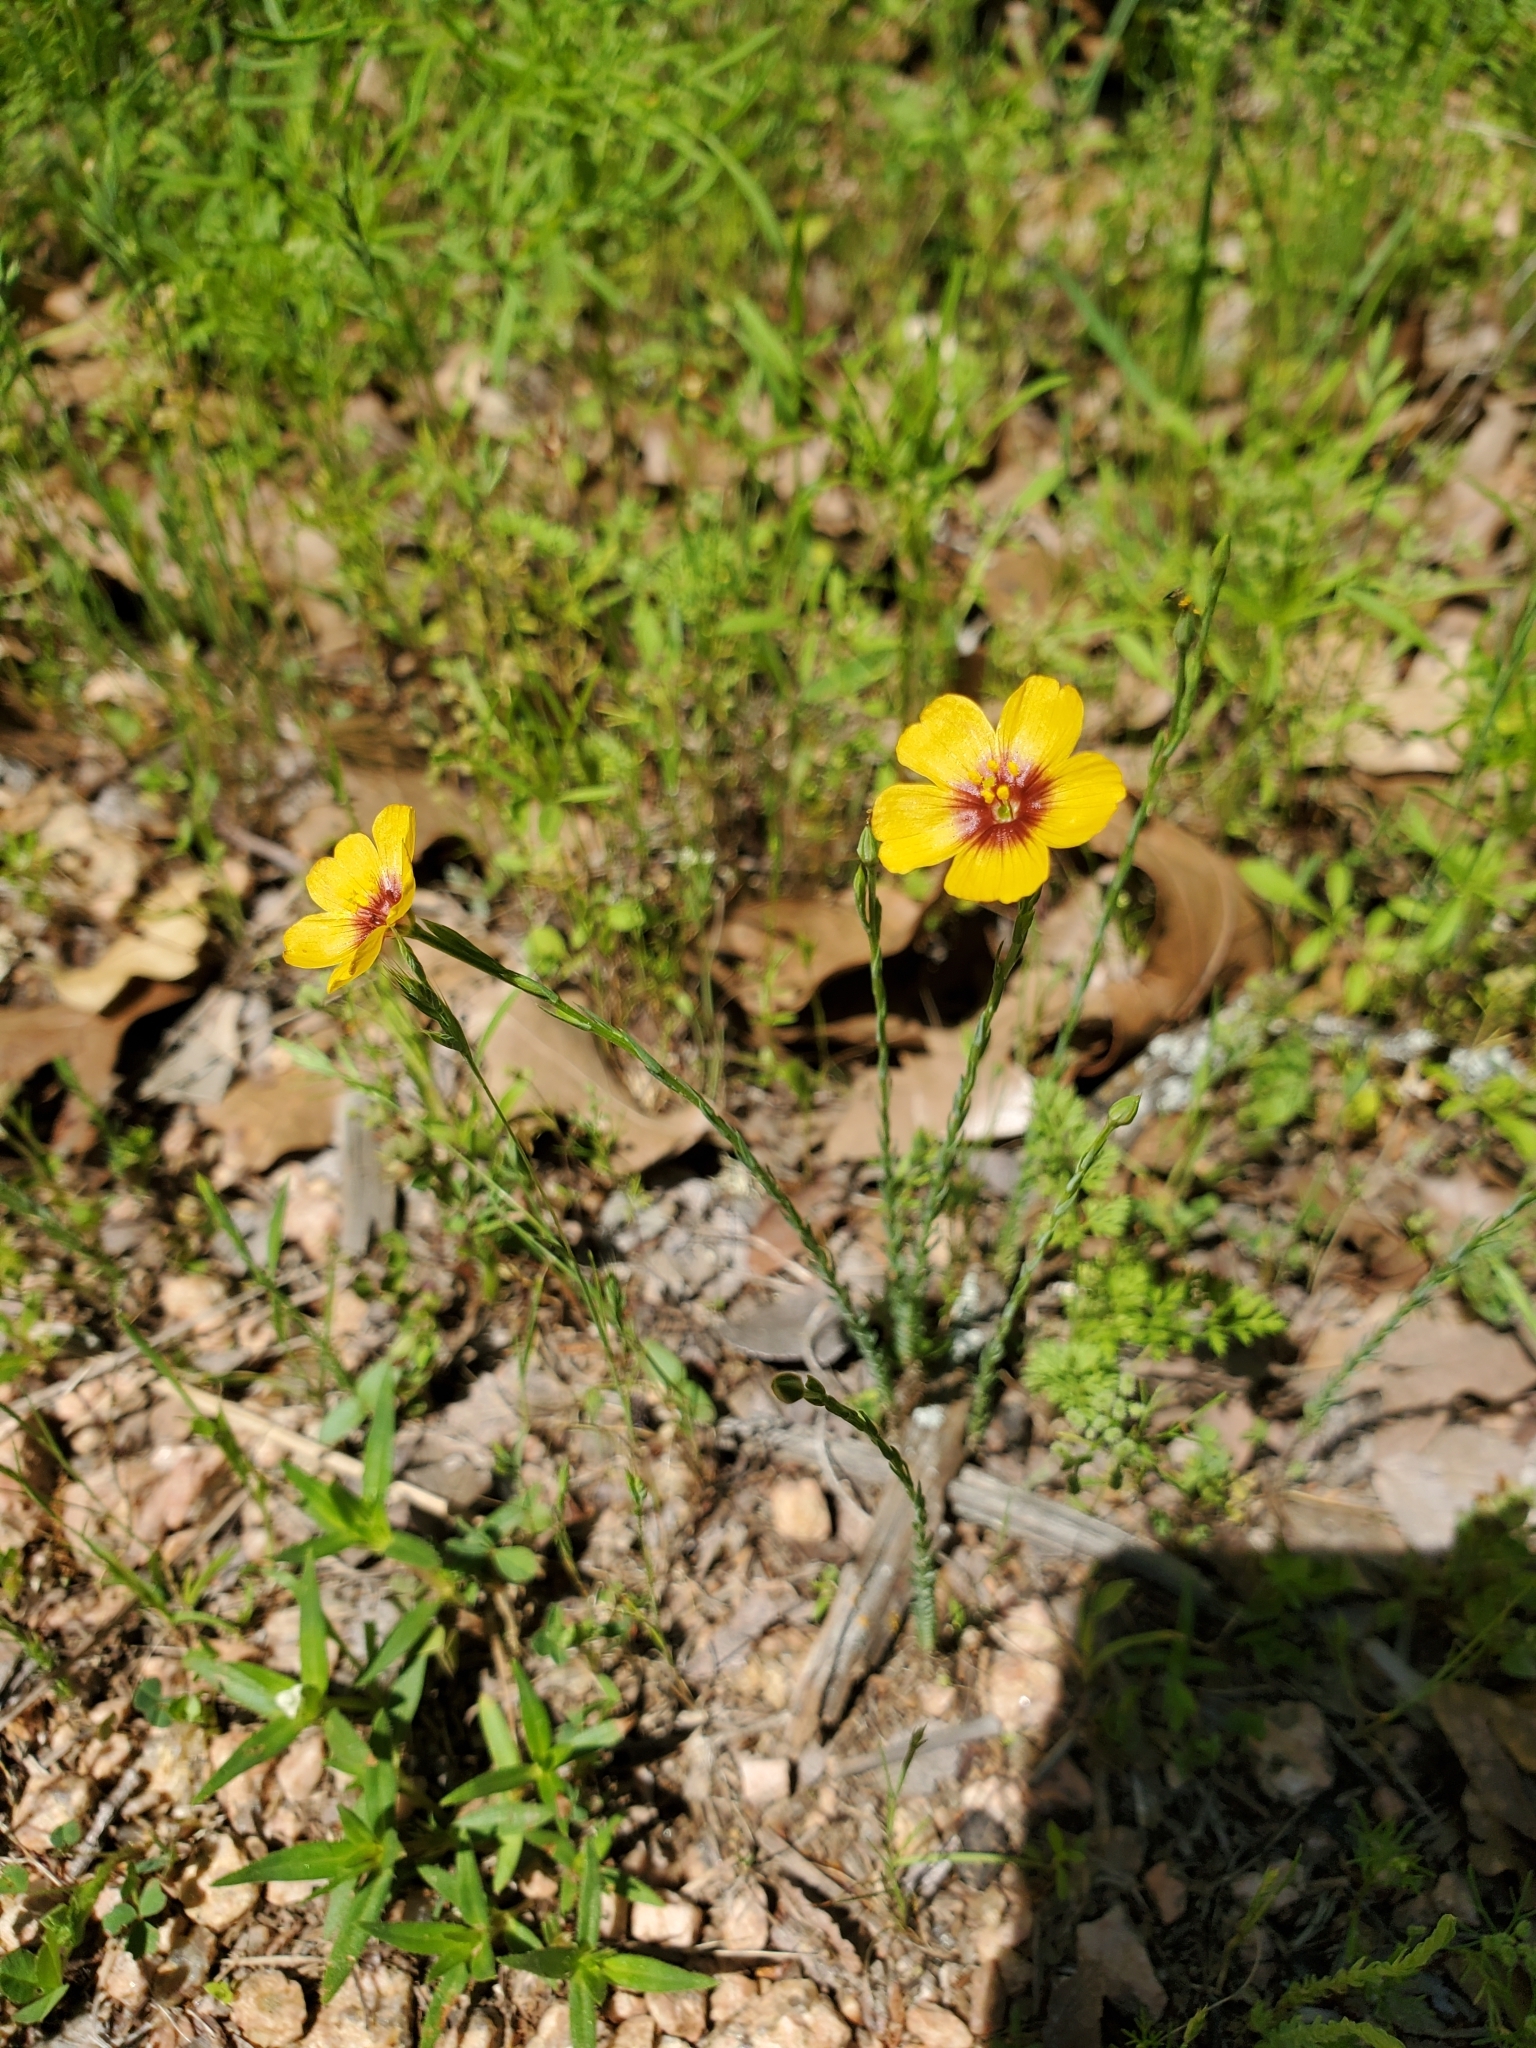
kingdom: Plantae
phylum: Tracheophyta
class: Magnoliopsida
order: Malpighiales
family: Linaceae
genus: Linum
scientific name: Linum hudsonioides
